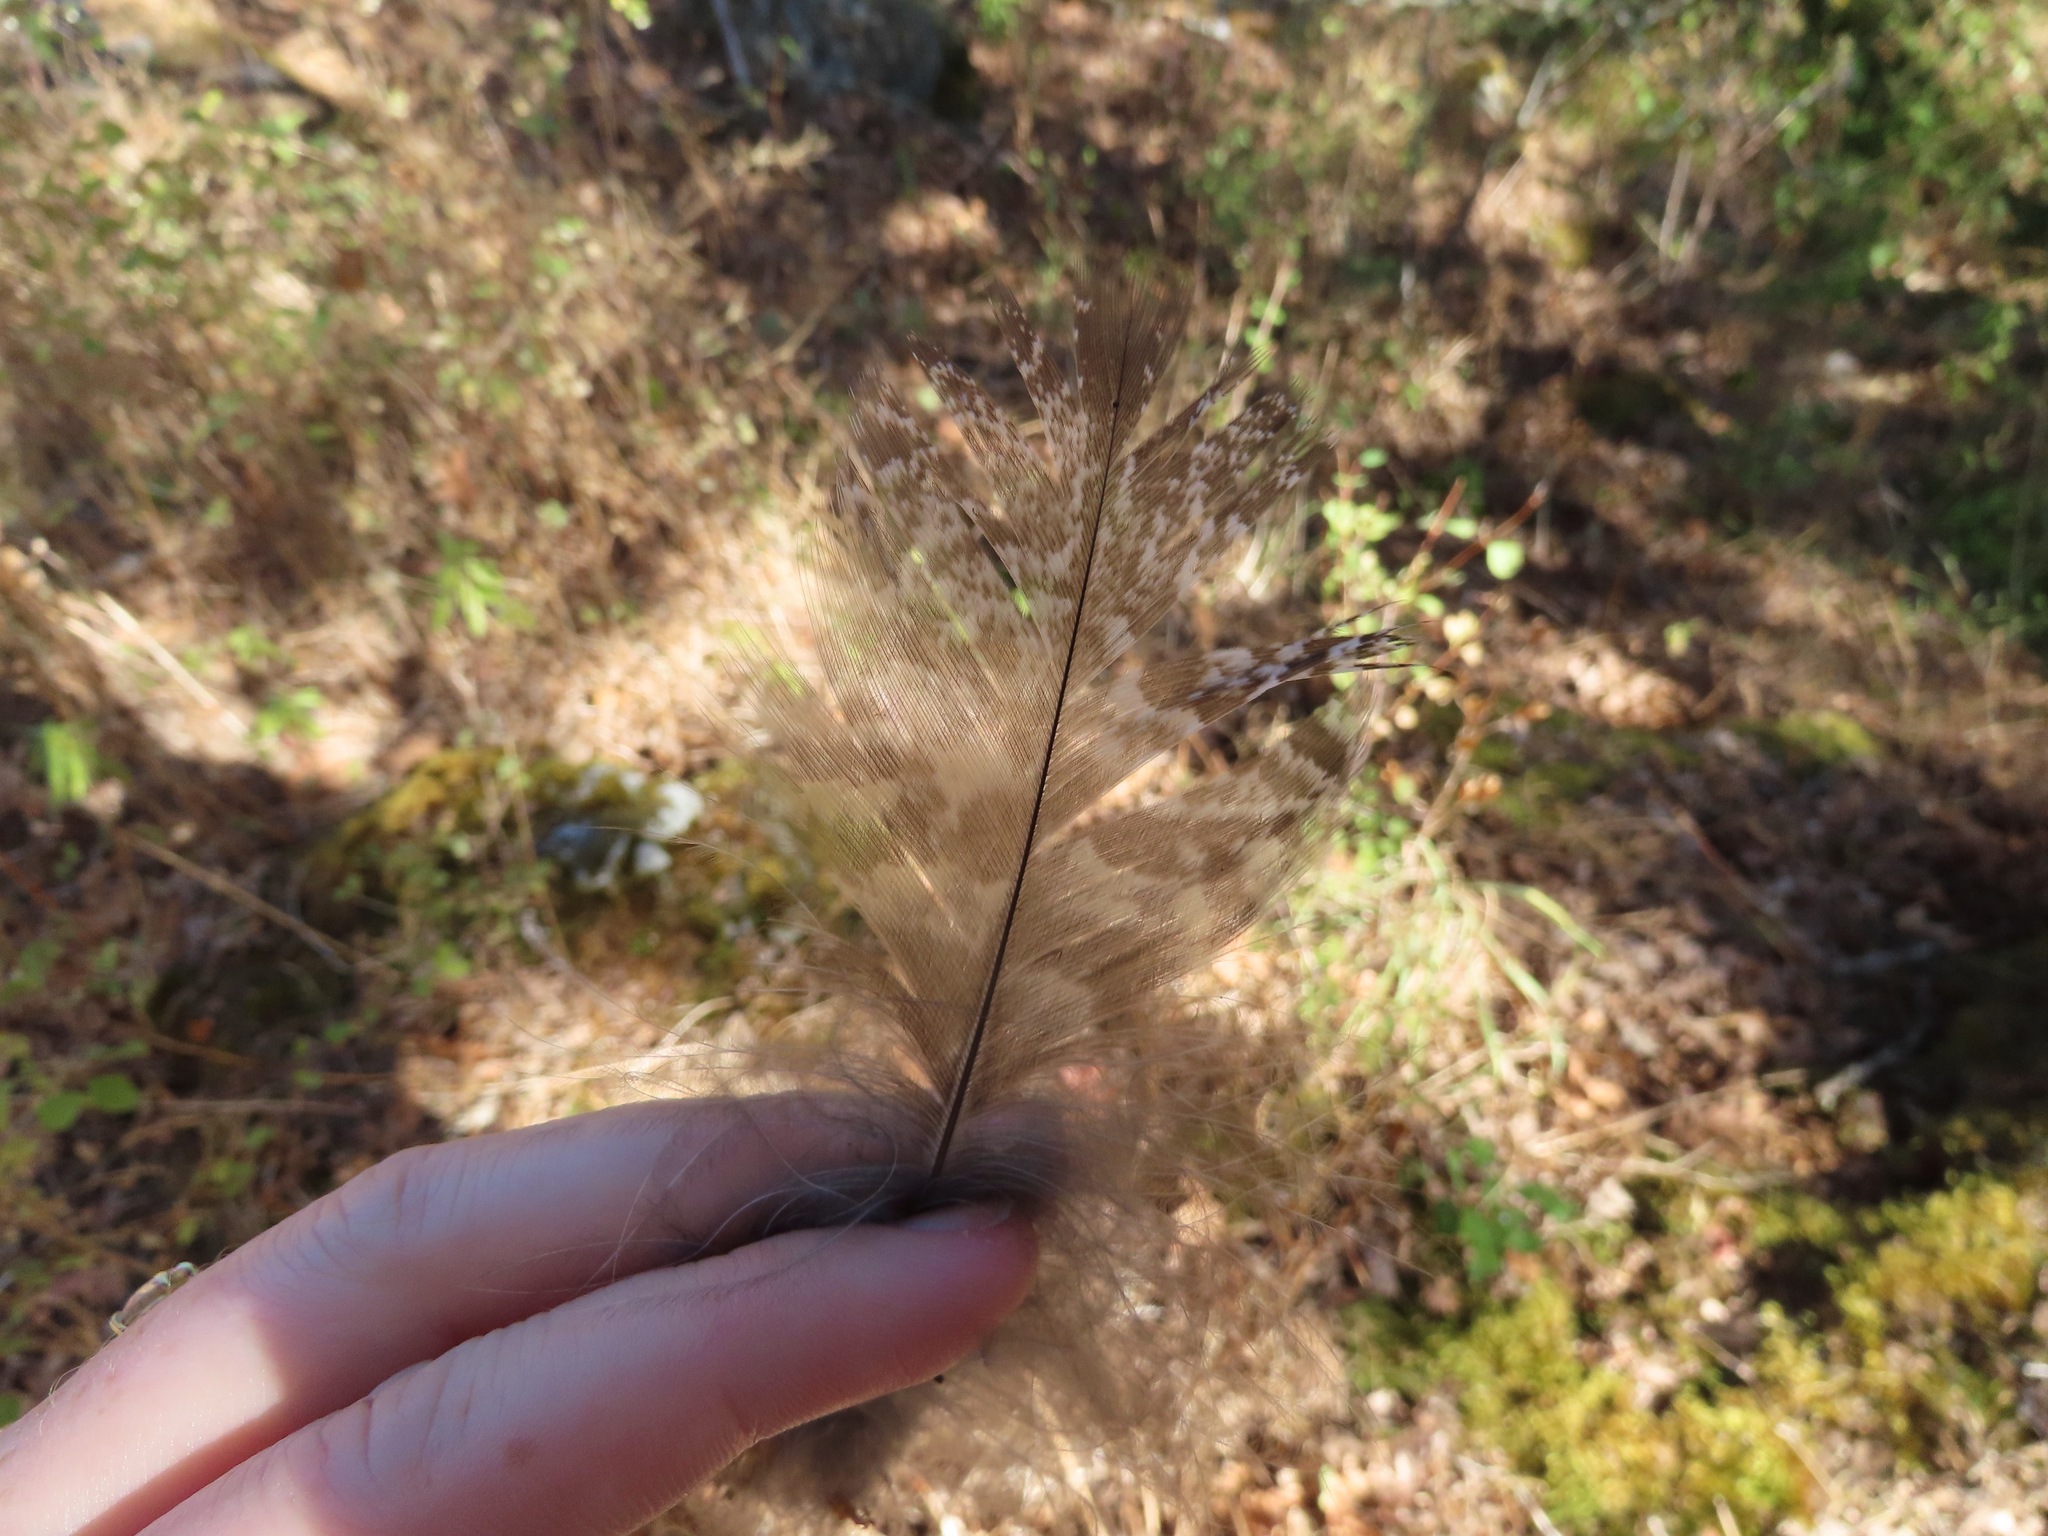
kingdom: Animalia
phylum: Chordata
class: Aves
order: Strigiformes
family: Strigidae
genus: Bubo
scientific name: Bubo virginianus
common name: Great horned owl
